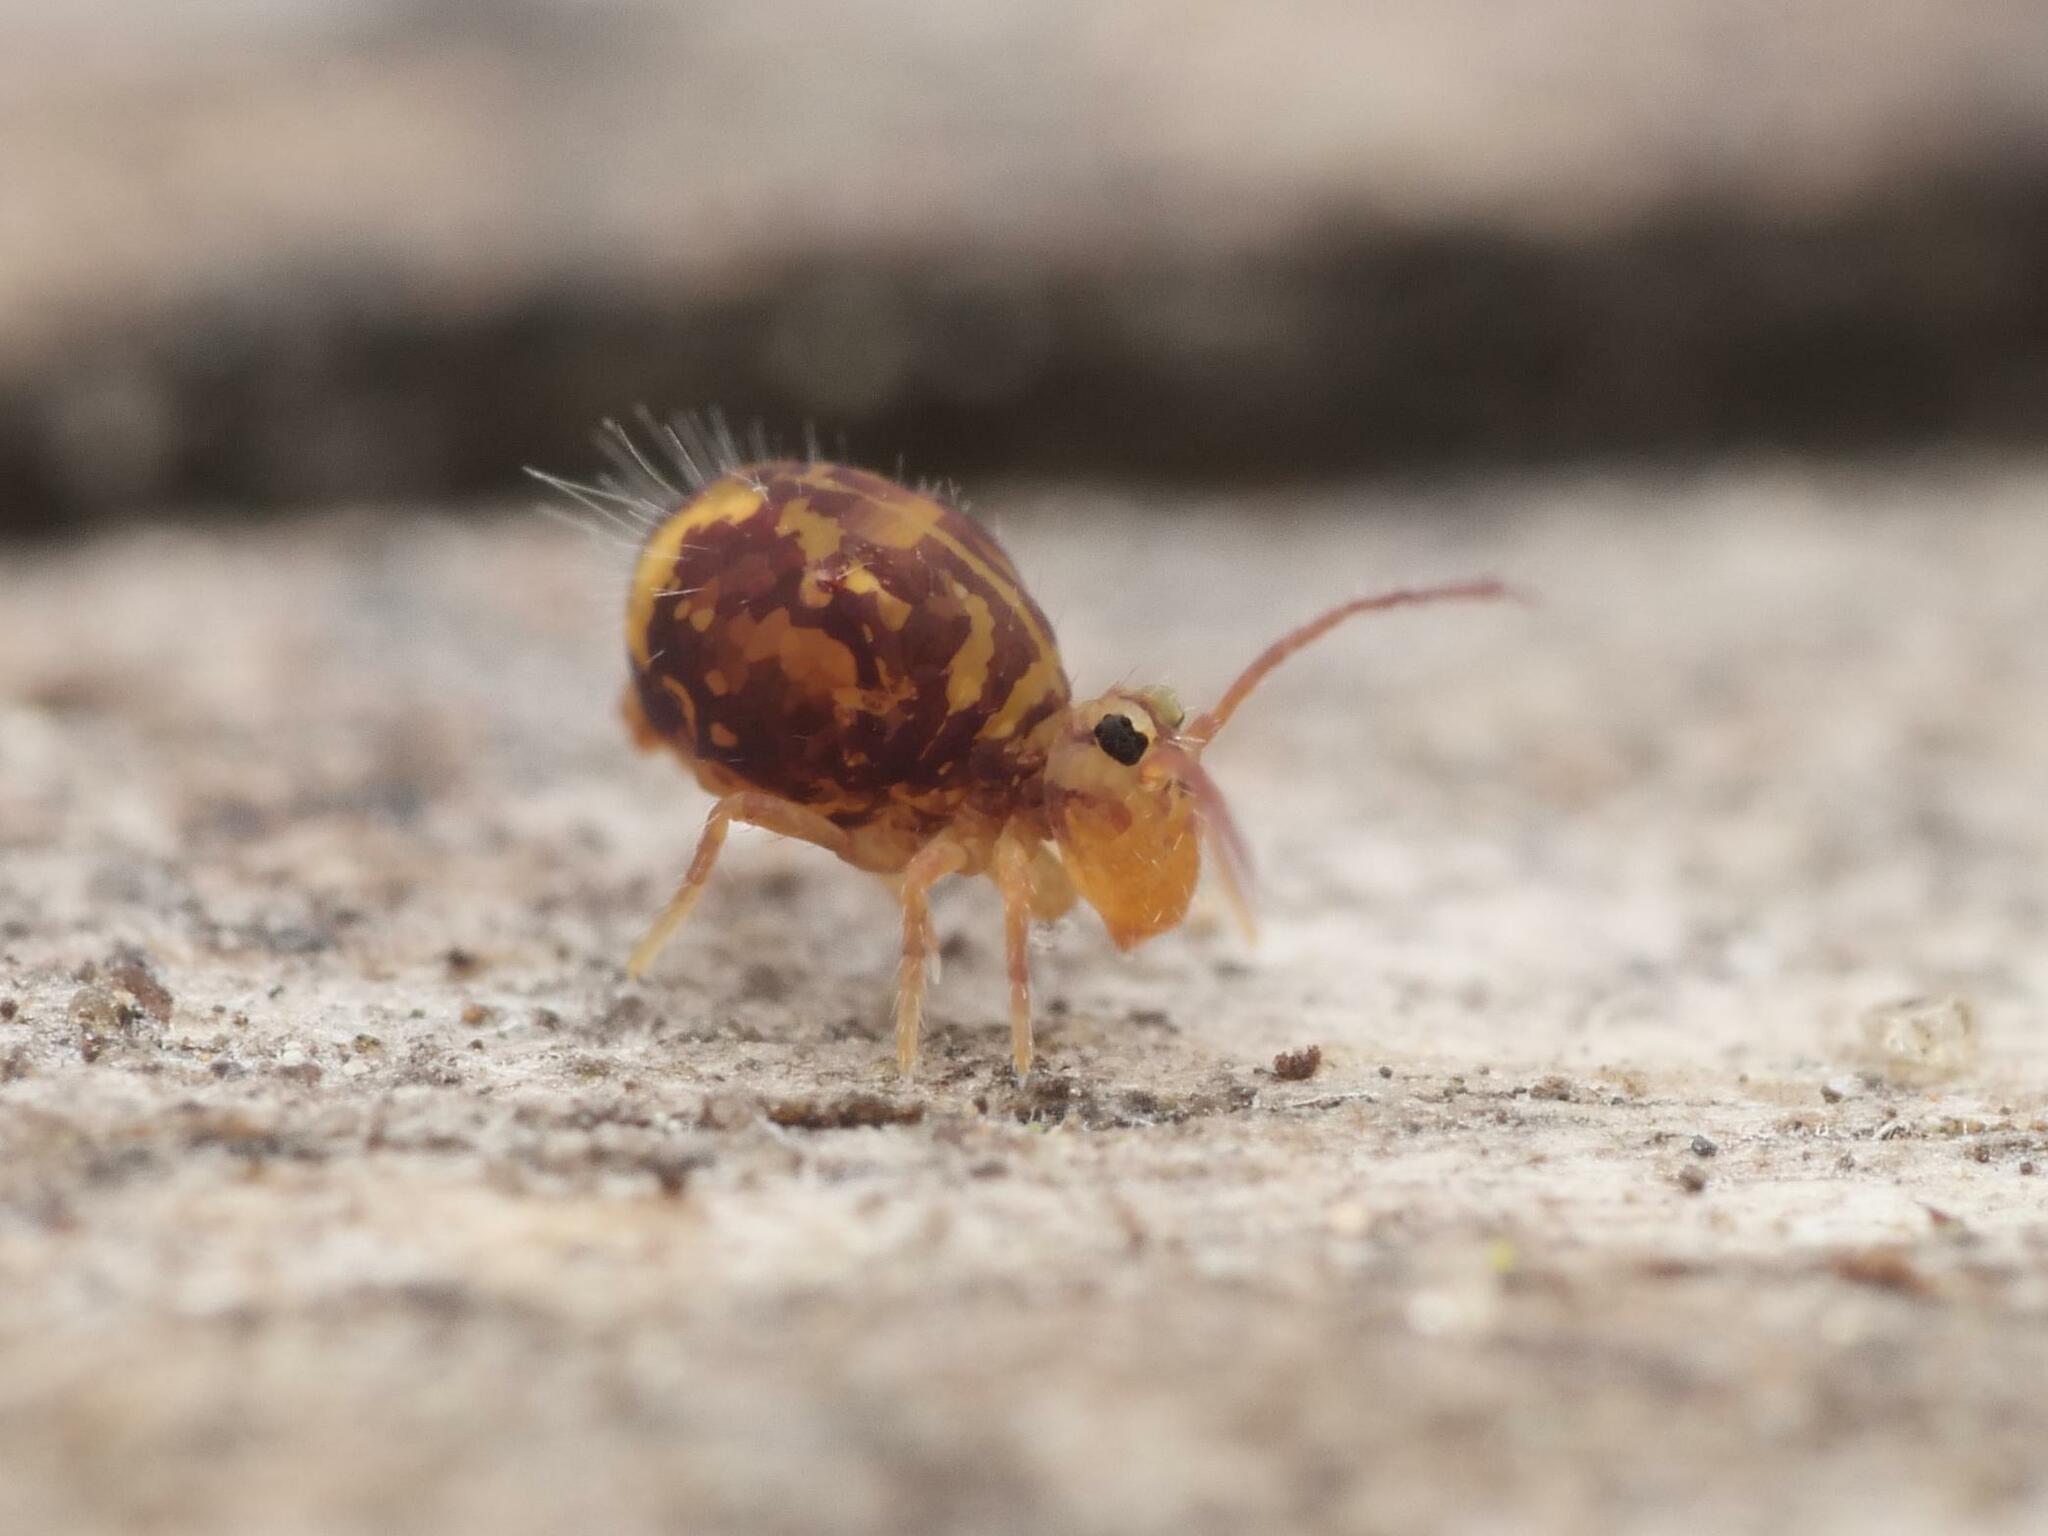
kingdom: Animalia
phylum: Arthropoda
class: Collembola
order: Symphypleona
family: Dicyrtomidae
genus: Dicyrtomina
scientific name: Dicyrtomina ornata
